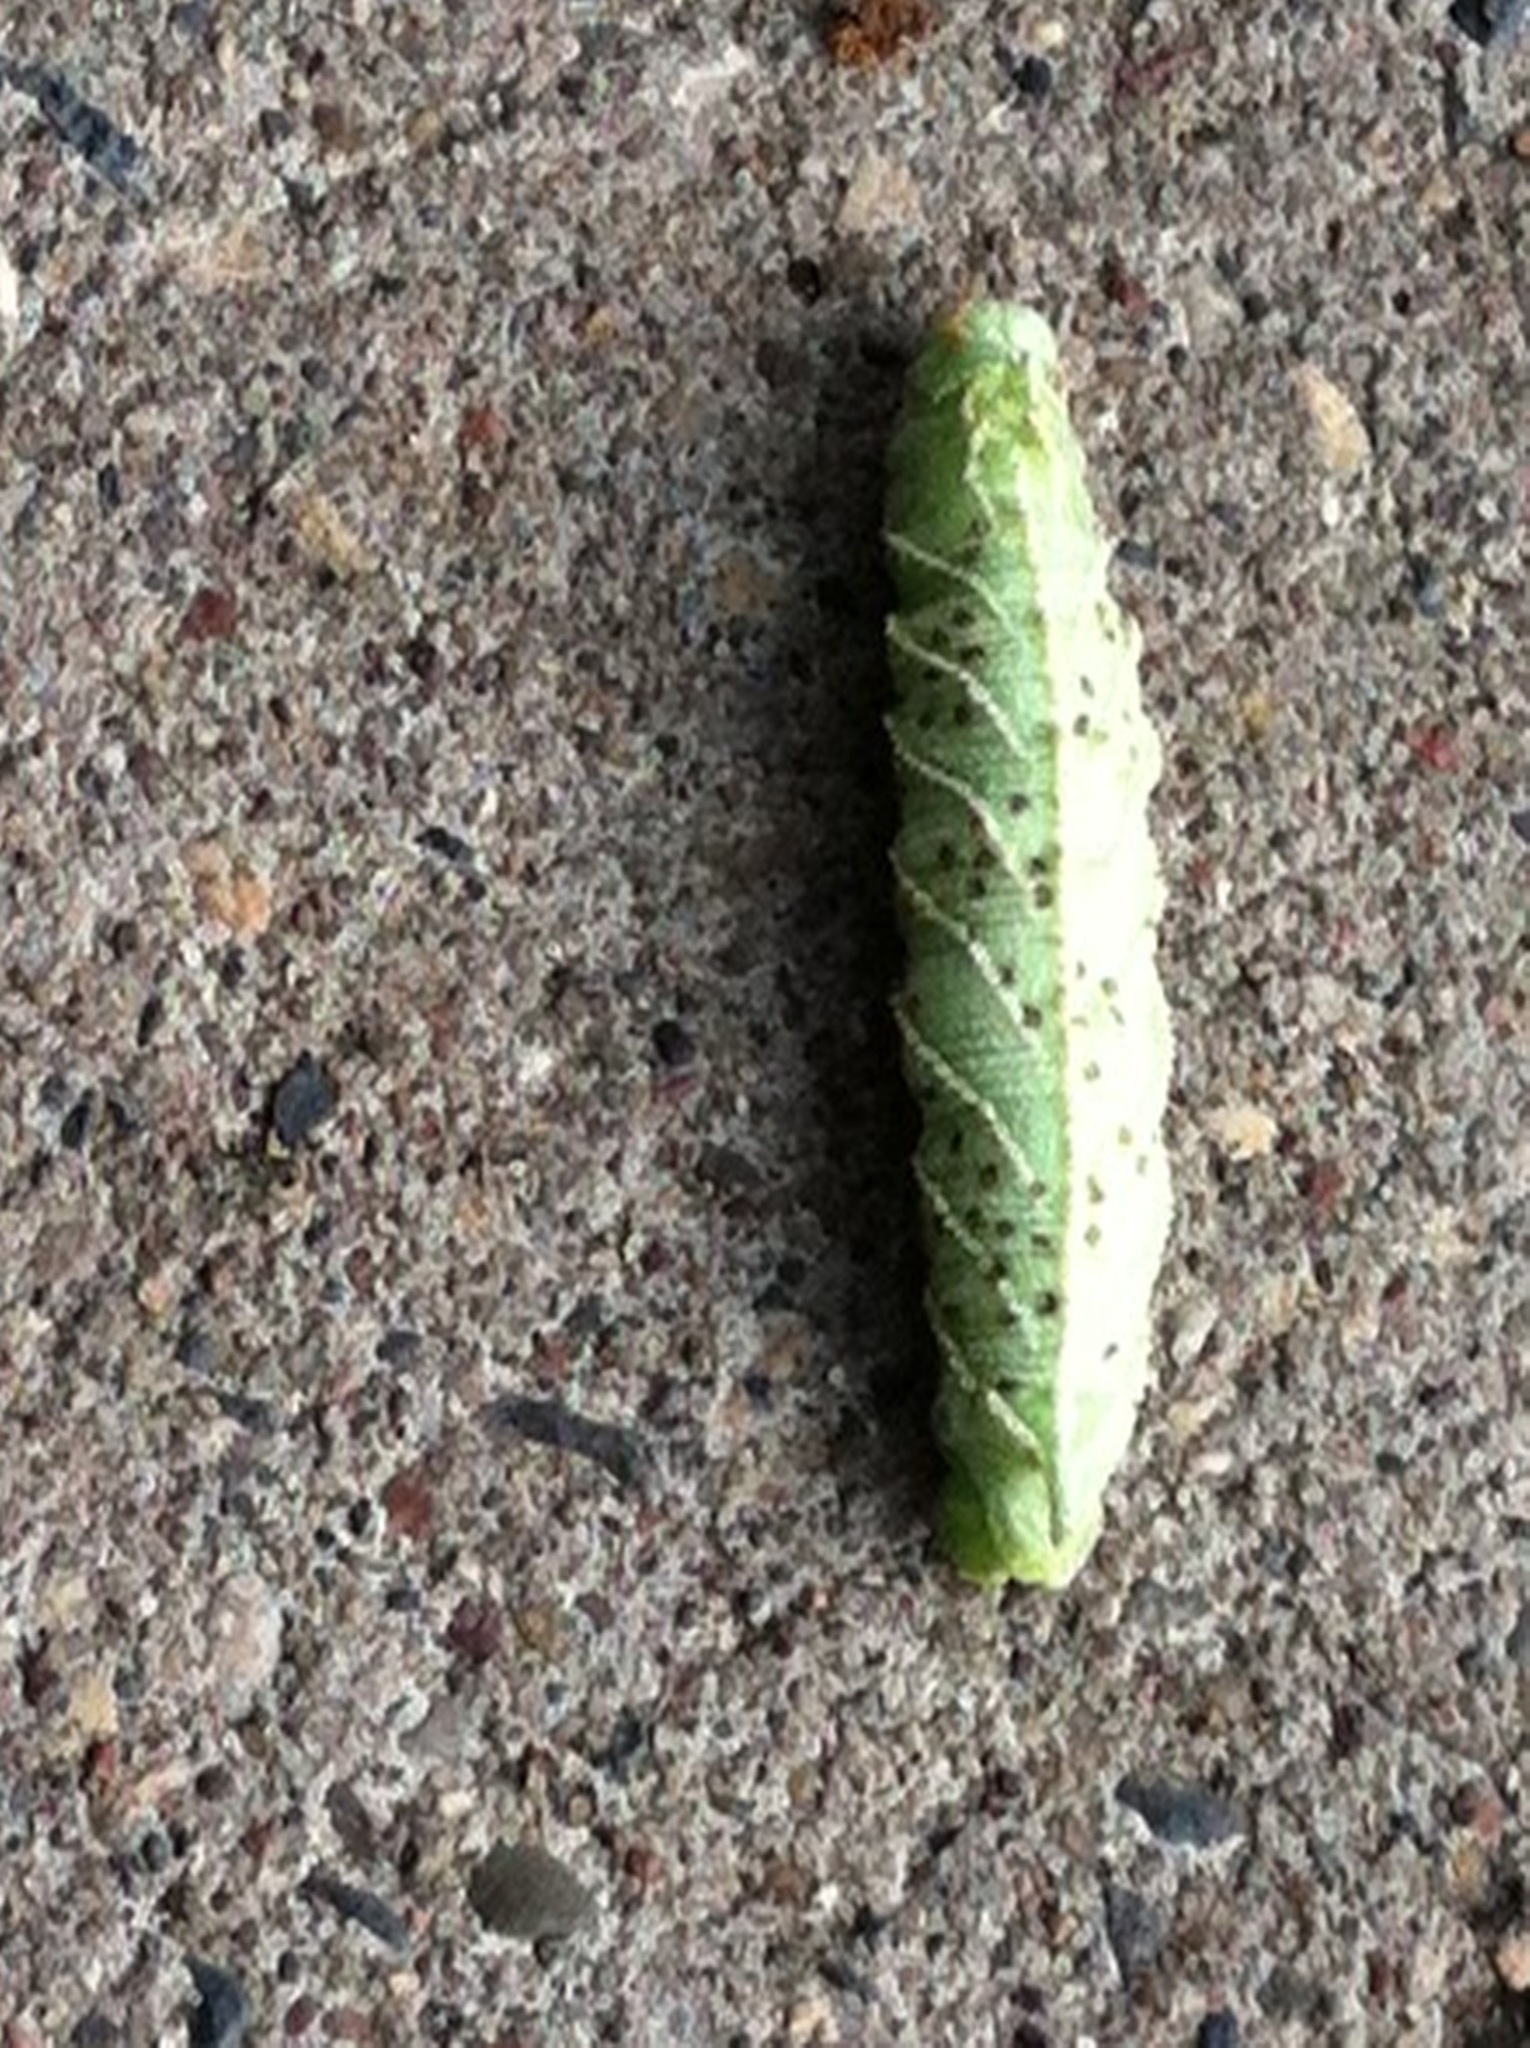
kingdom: Animalia
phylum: Arthropoda
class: Insecta
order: Lepidoptera
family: Sphingidae
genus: Ceratomia
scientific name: Ceratomia amyntor
